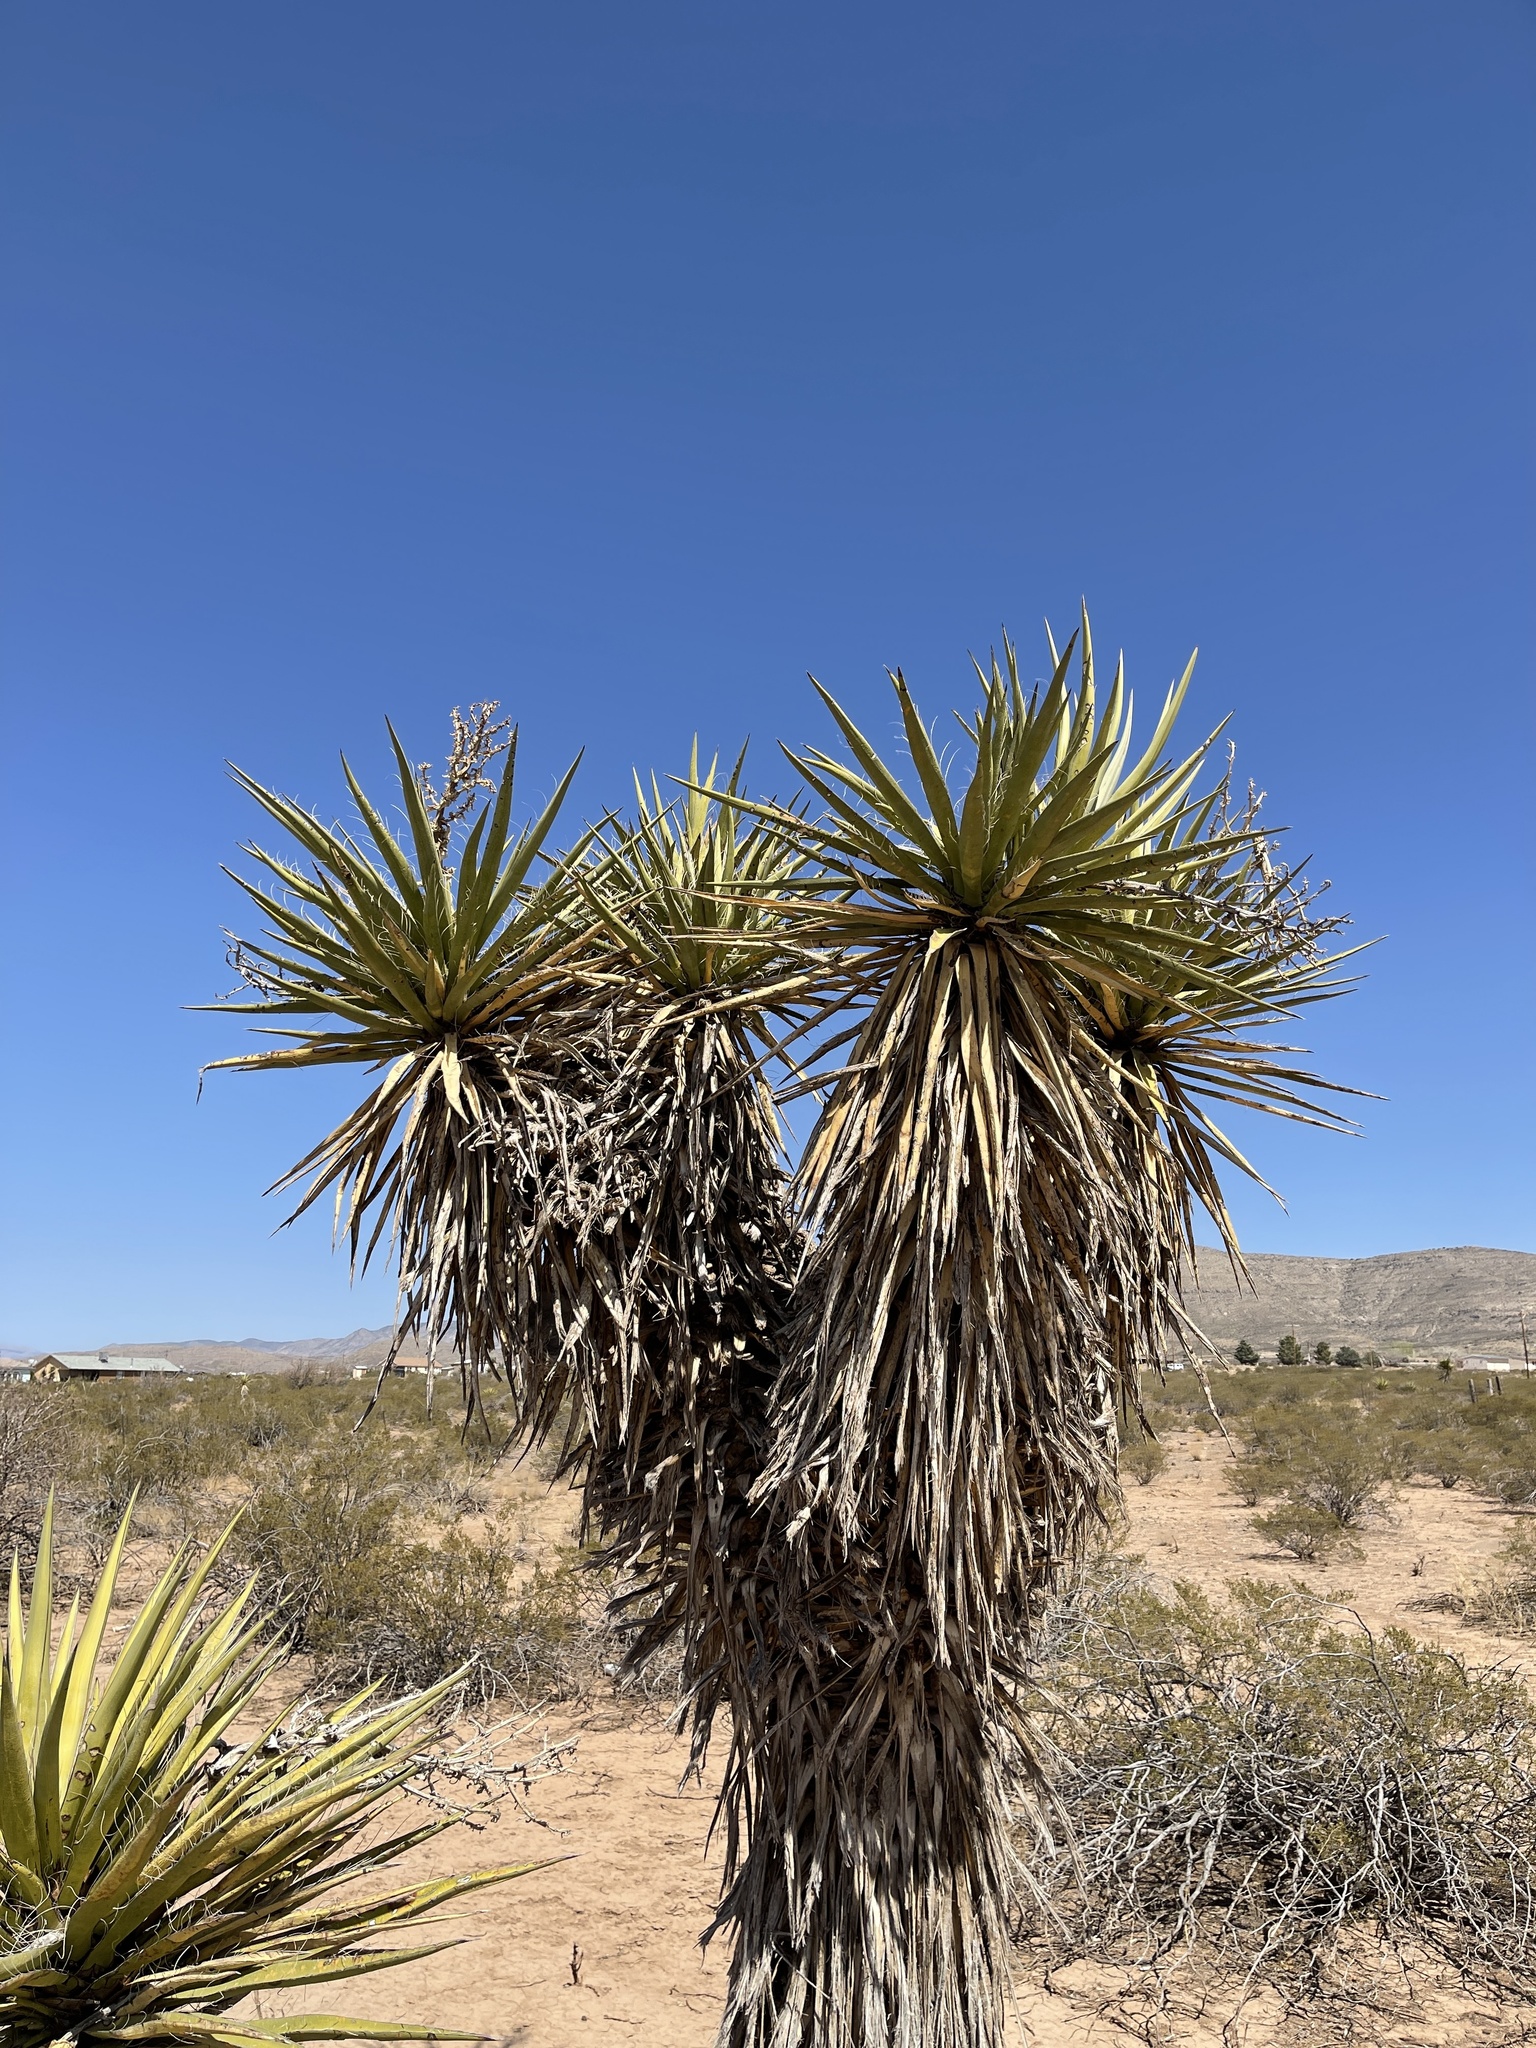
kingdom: Plantae
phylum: Tracheophyta
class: Liliopsida
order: Asparagales
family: Asparagaceae
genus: Yucca
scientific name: Yucca treculiana
